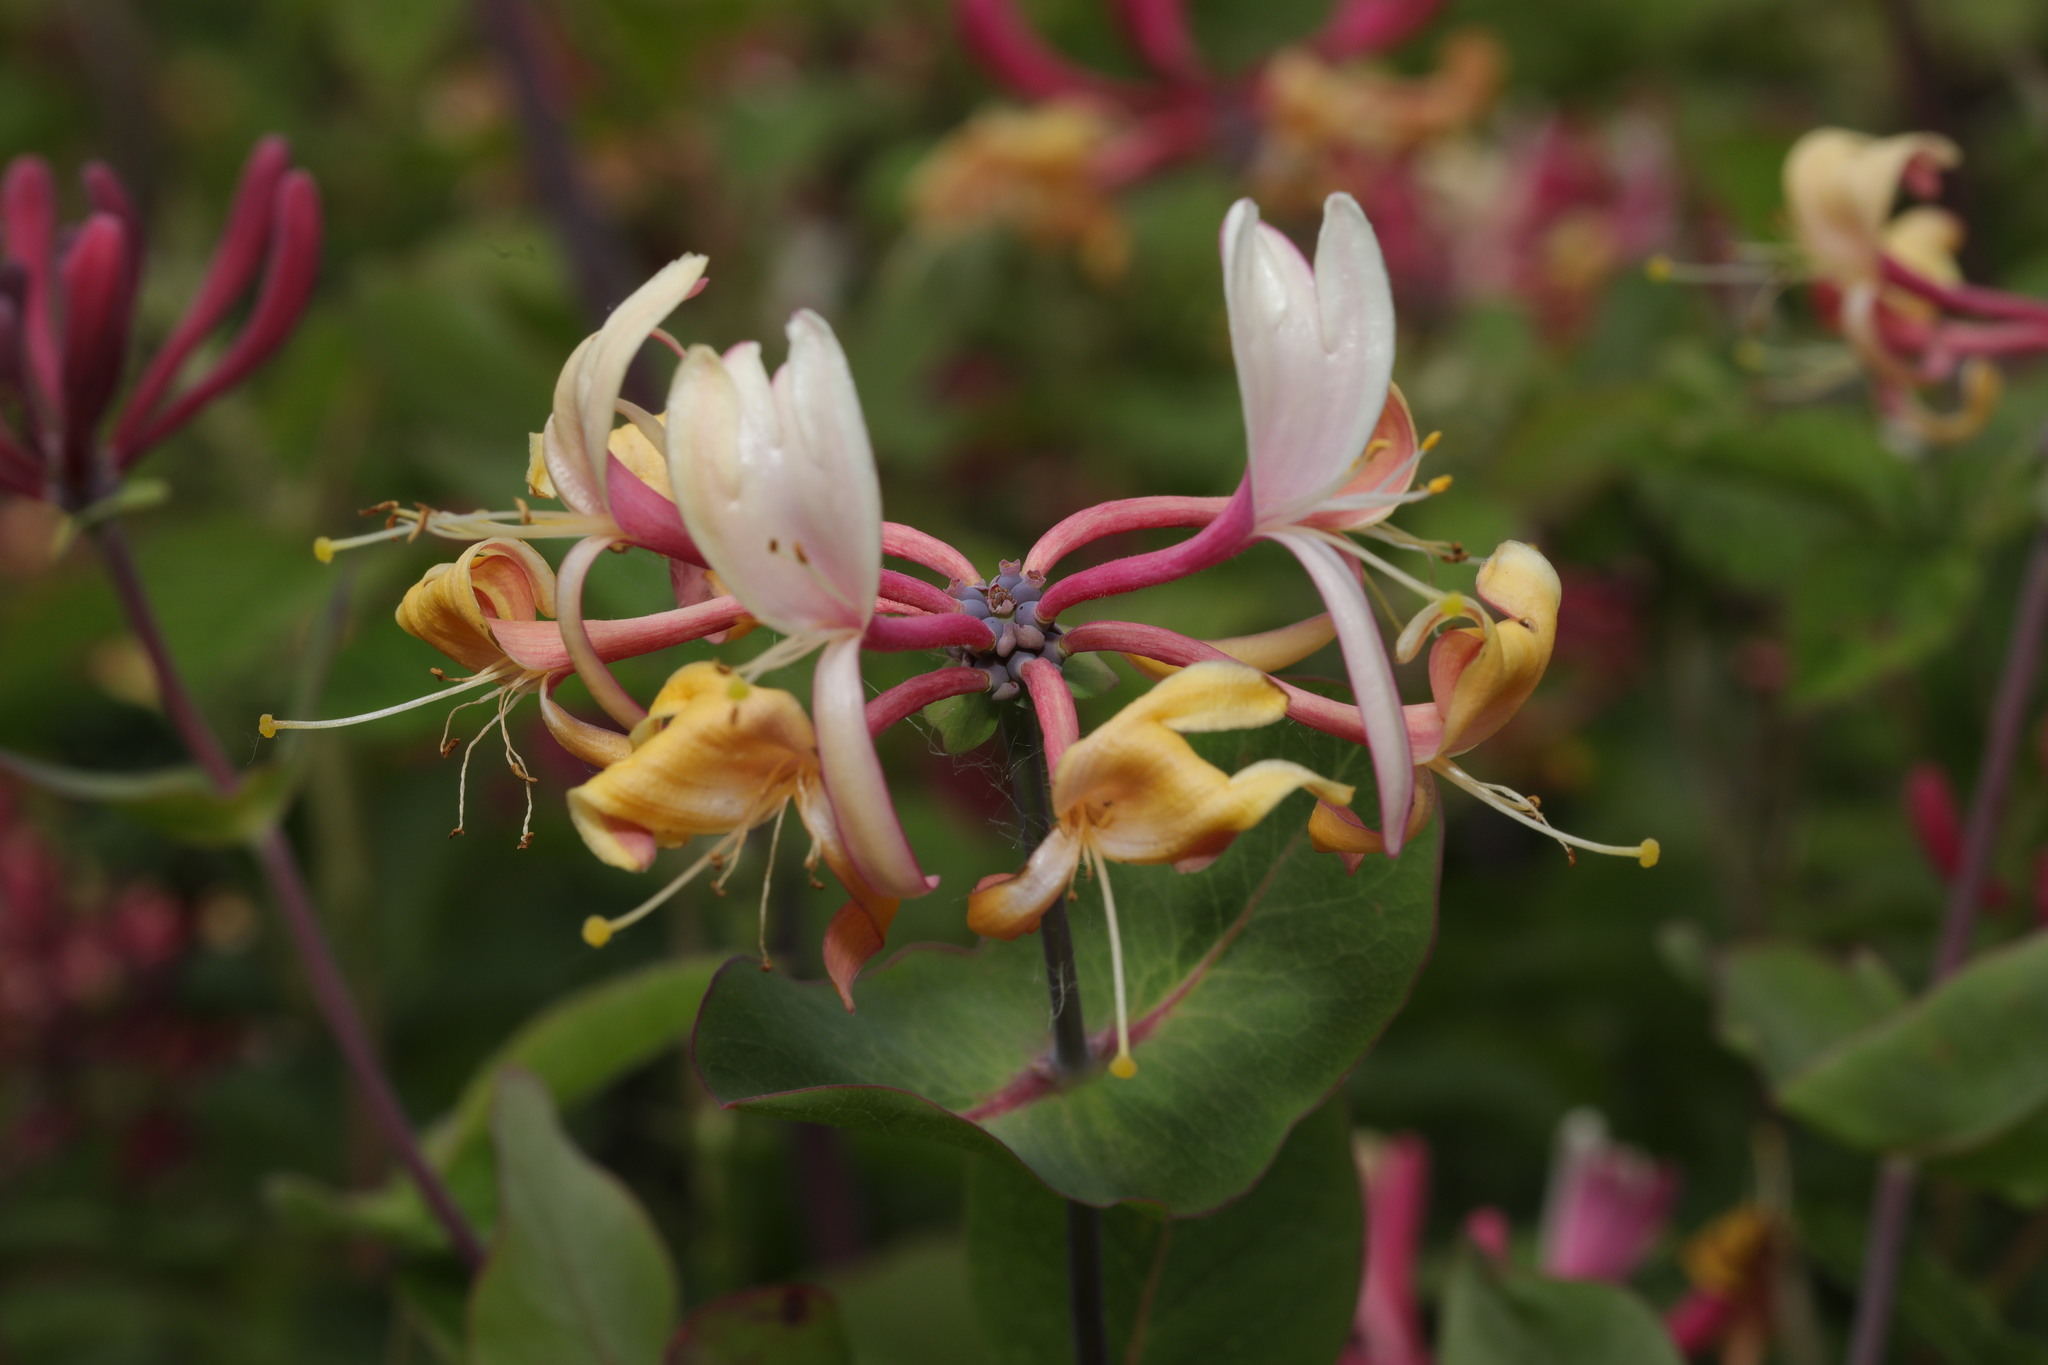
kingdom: Plantae
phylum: Tracheophyta
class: Magnoliopsida
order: Dipsacales
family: Caprifoliaceae
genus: Lonicera
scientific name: Lonicera periclymenum
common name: European honeysuckle
